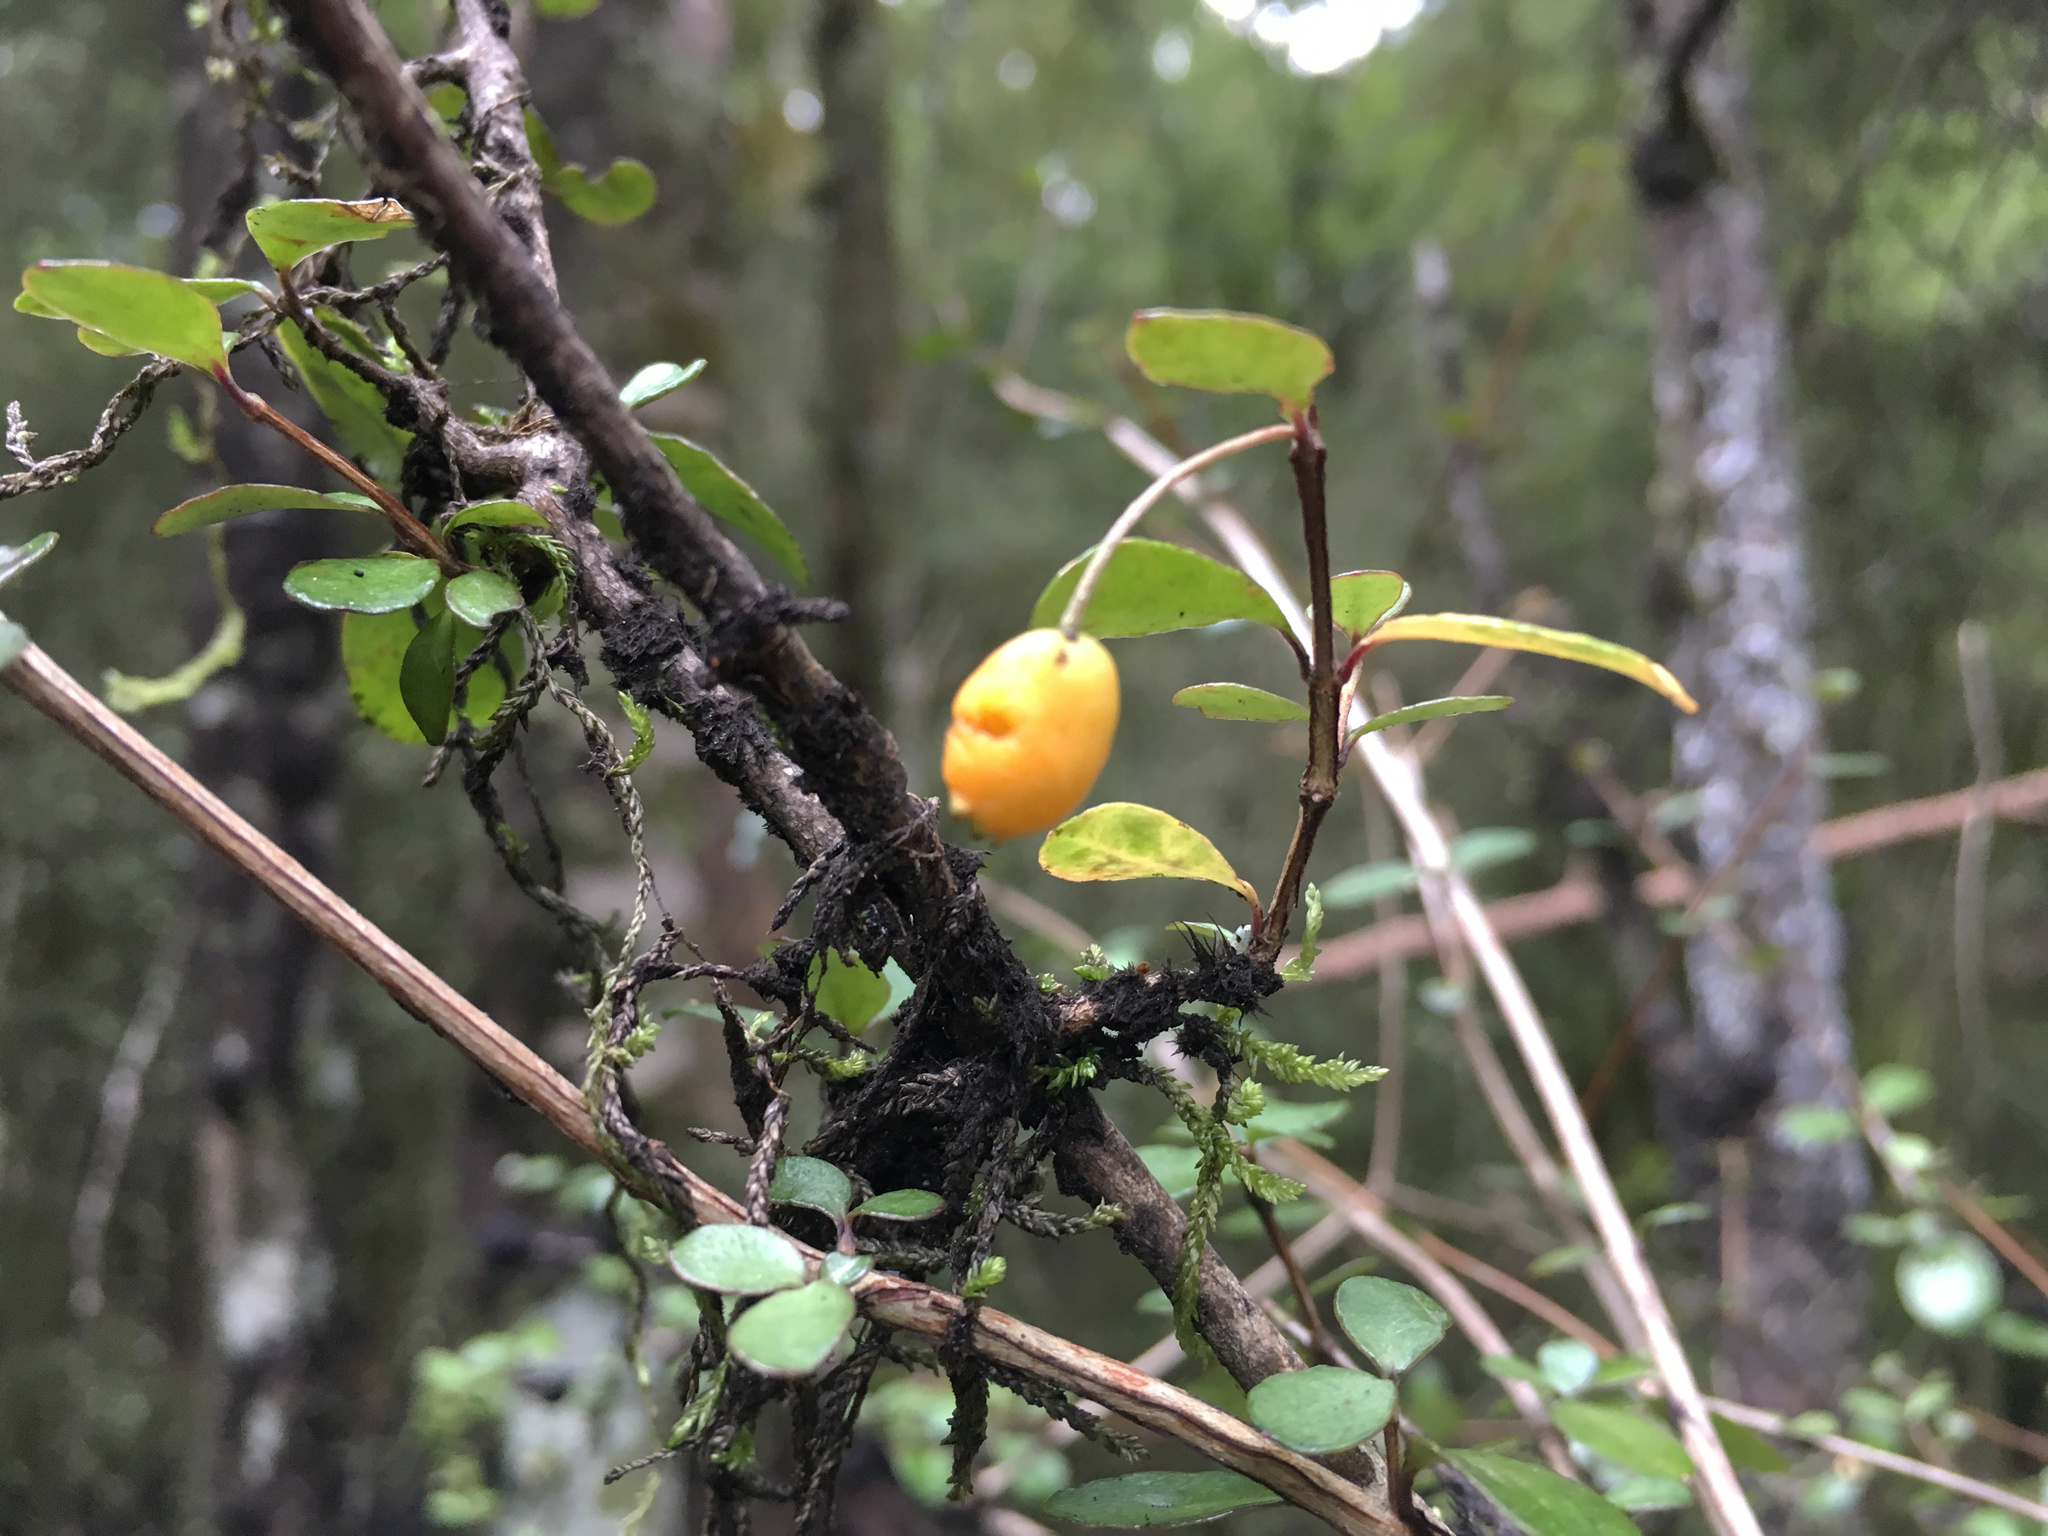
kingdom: Plantae
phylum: Tracheophyta
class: Magnoliopsida
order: Myrtales
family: Myrtaceae
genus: Neomyrtus
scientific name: Neomyrtus pedunculata
